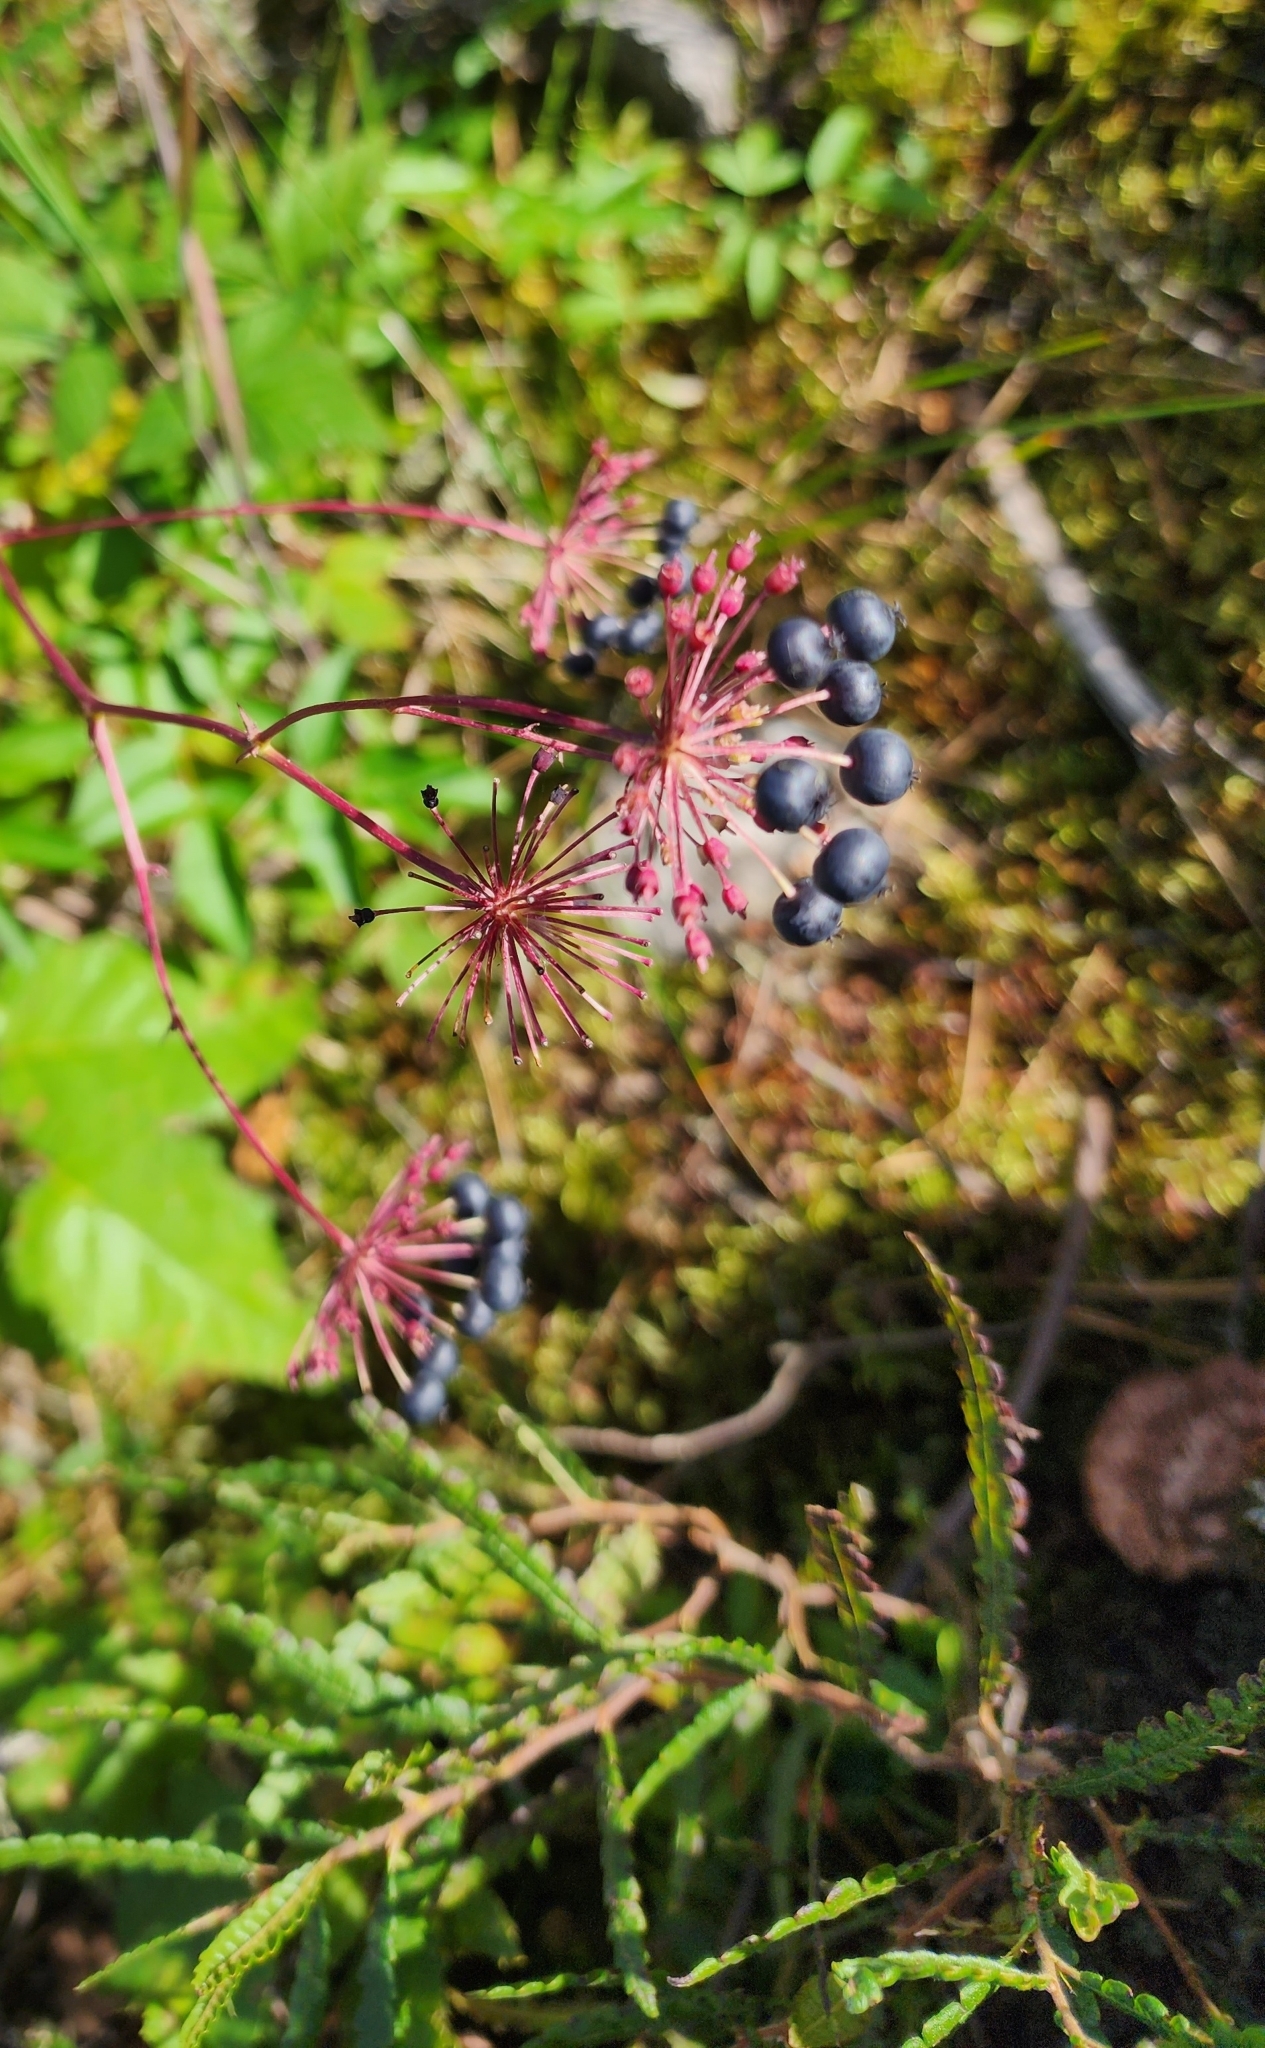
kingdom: Plantae
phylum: Tracheophyta
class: Magnoliopsida
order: Apiales
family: Araliaceae
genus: Aralia
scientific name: Aralia hispida
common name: Bristly sarsaparilla
